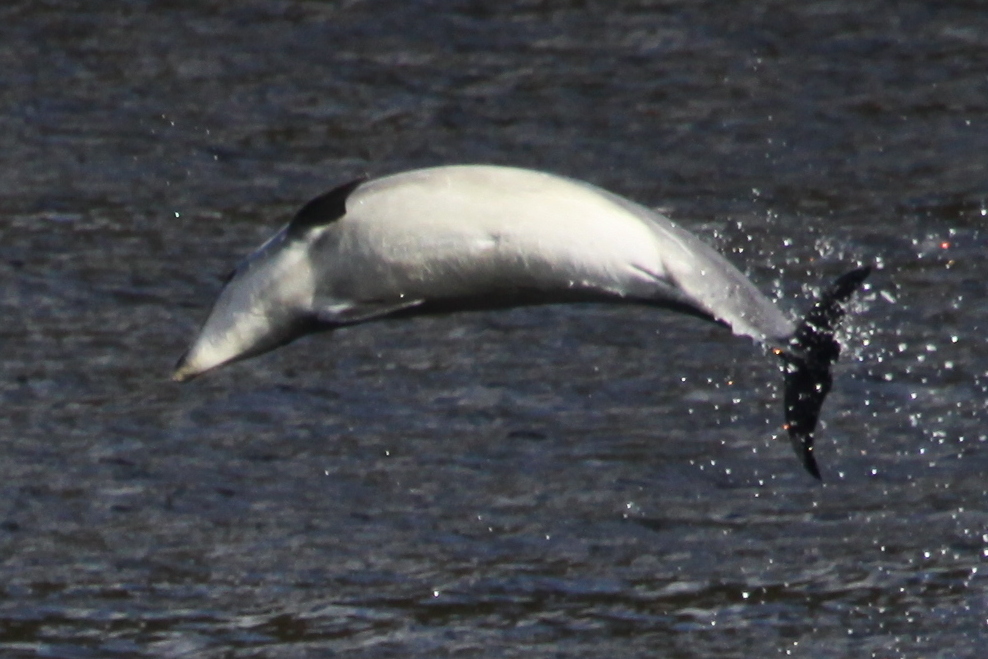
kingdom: Animalia
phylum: Chordata
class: Mammalia
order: Cetacea
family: Delphinidae
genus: Tursiops
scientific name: Tursiops truncatus
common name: Bottlenose dolphin
